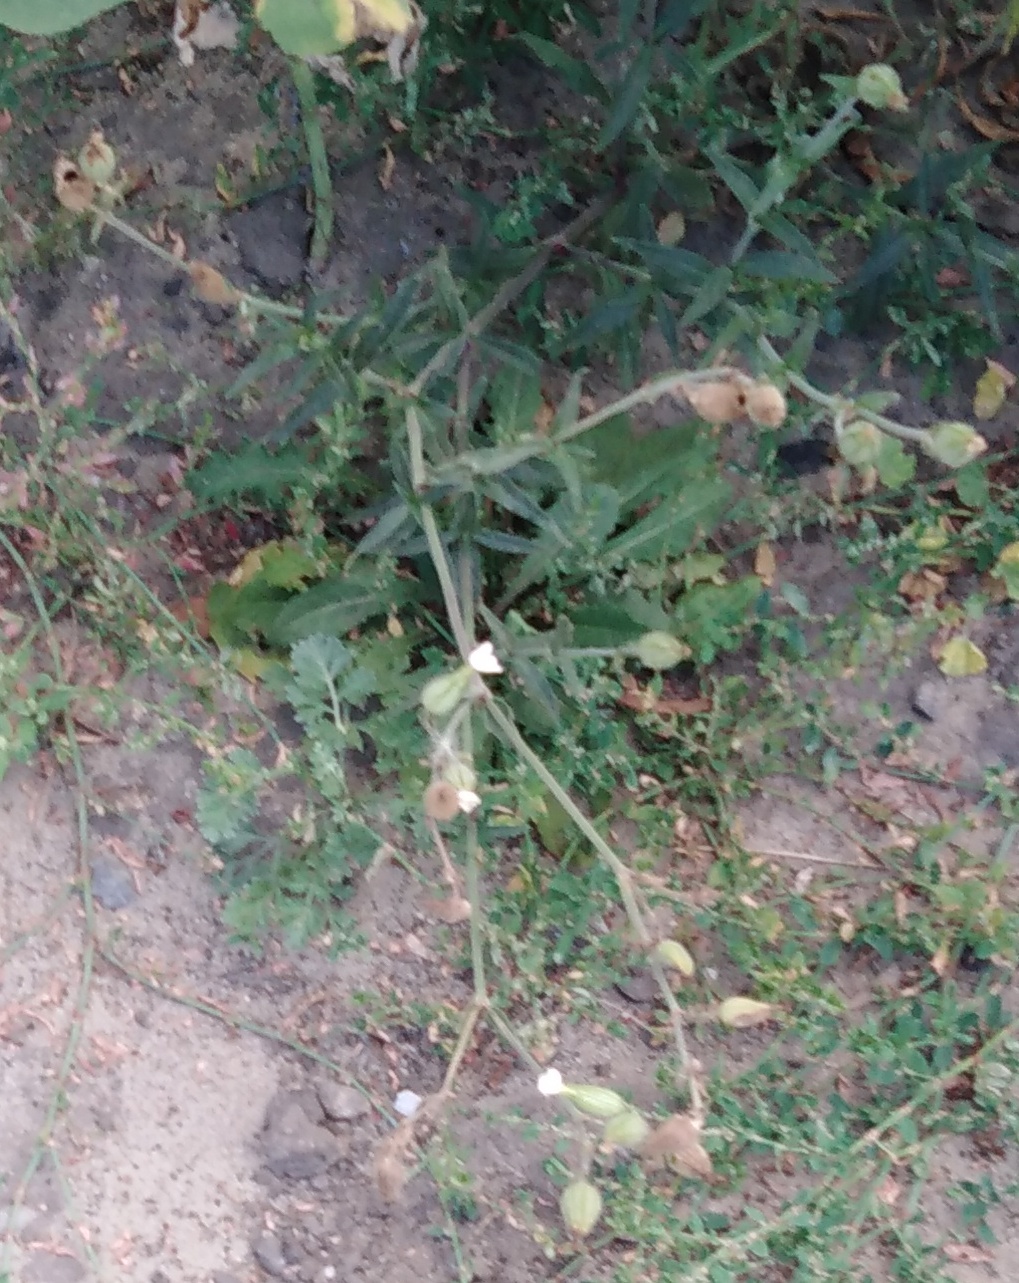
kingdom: Plantae
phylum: Tracheophyta
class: Magnoliopsida
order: Caryophyllales
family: Caryophyllaceae
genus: Silene
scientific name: Silene latifolia
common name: White campion
